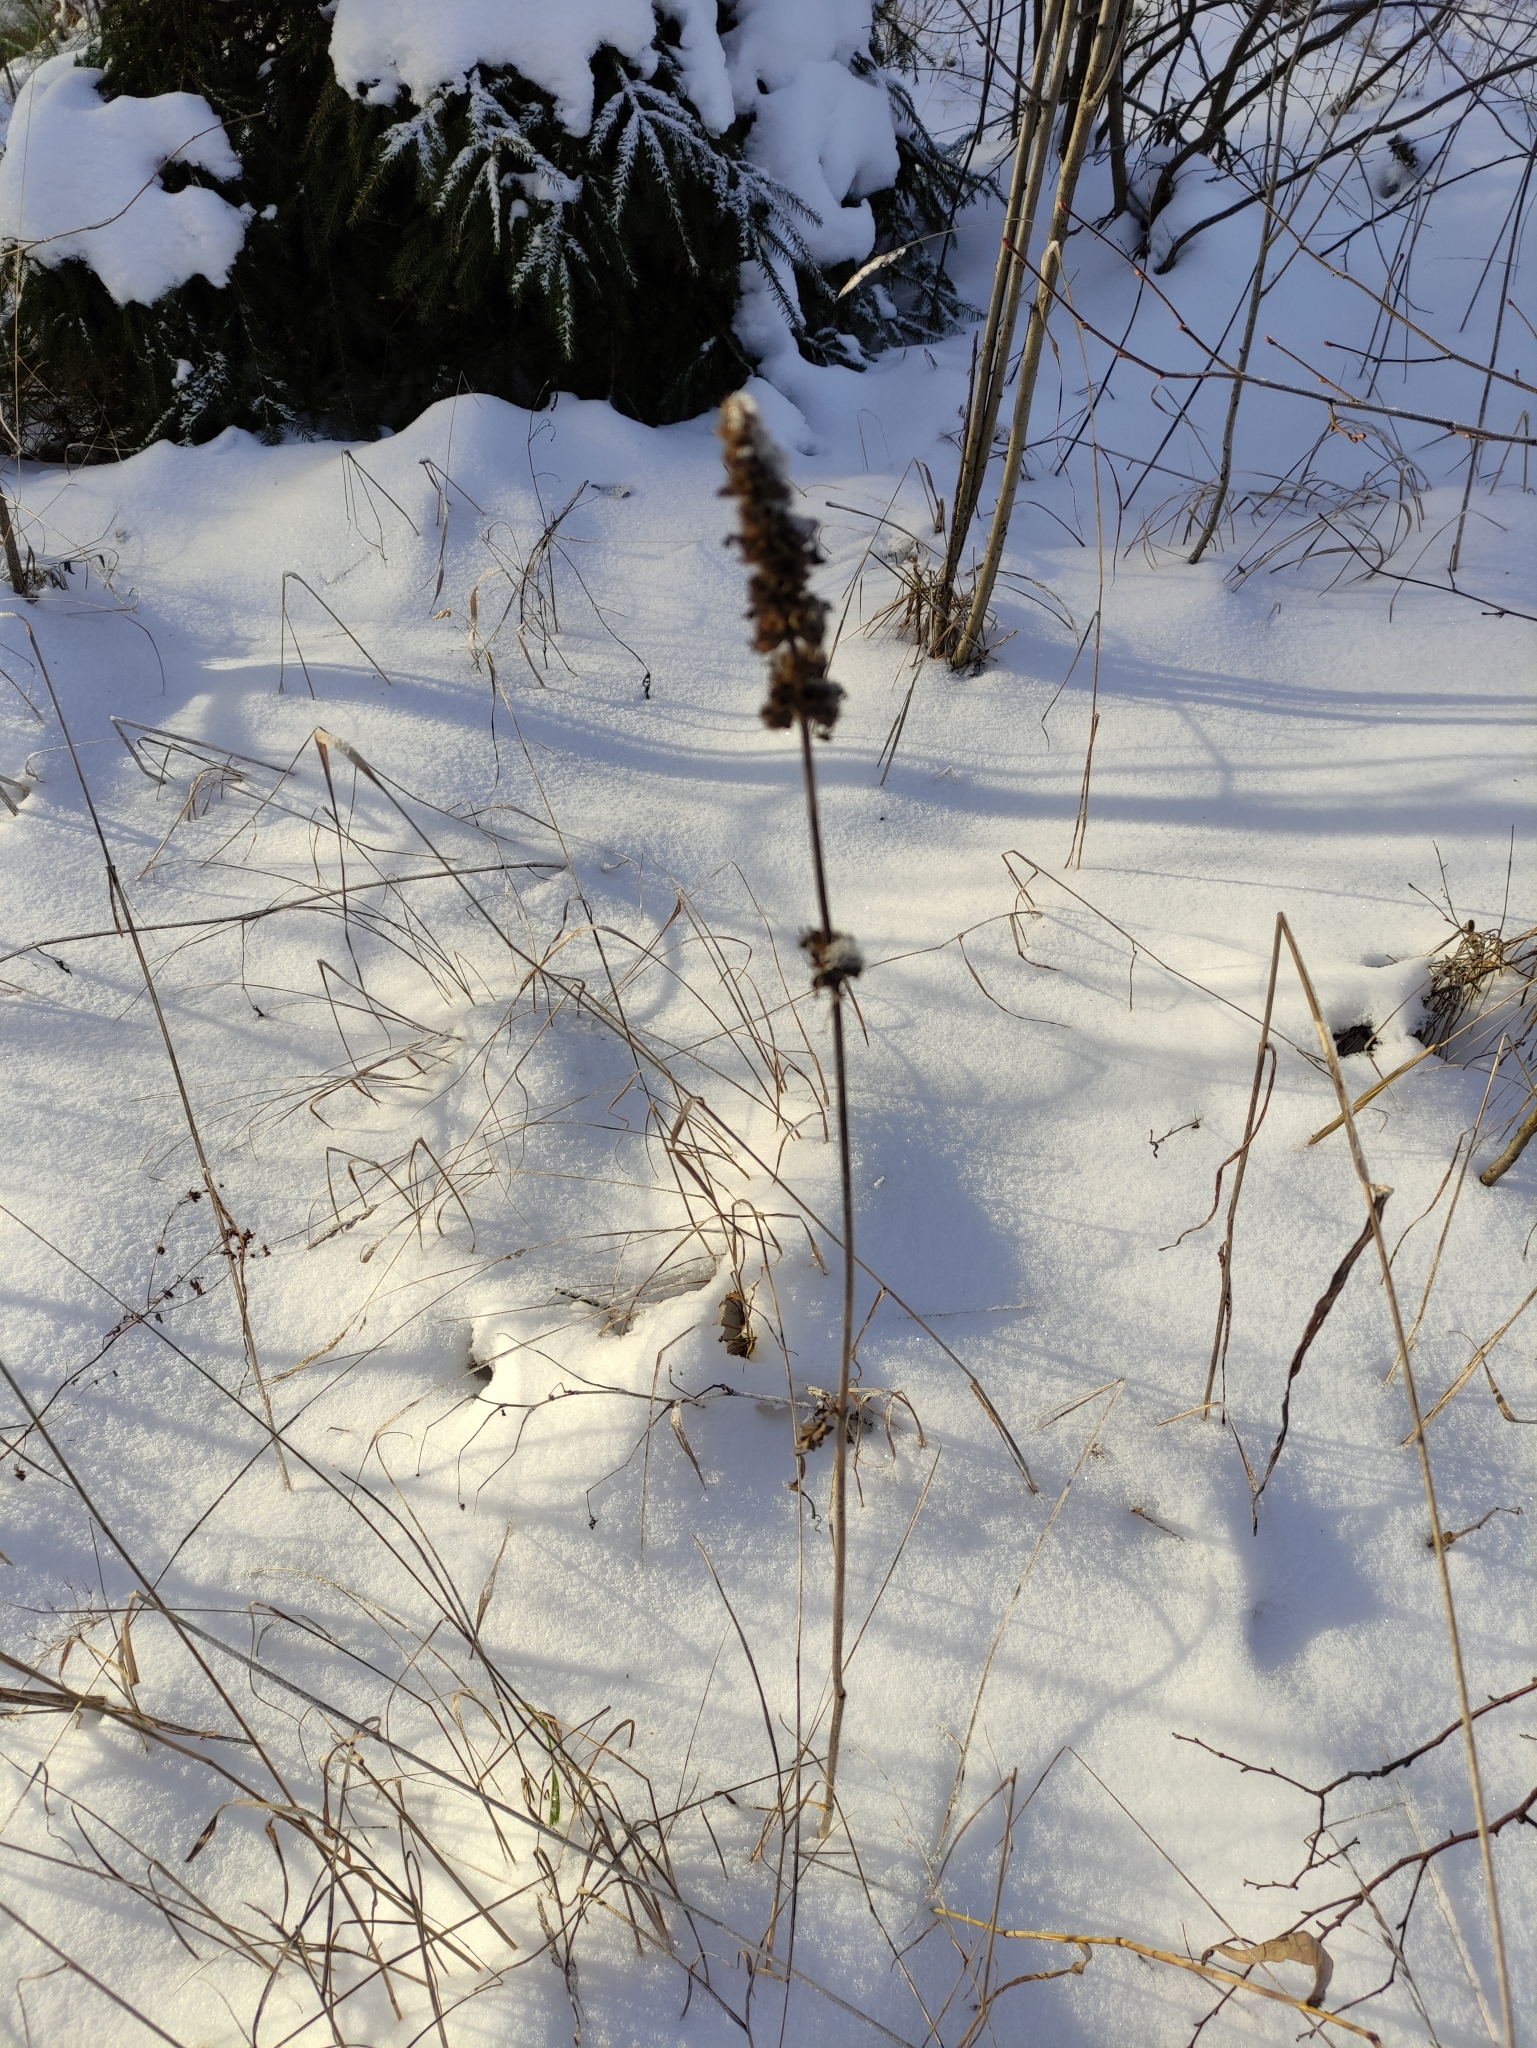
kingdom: Plantae
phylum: Tracheophyta
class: Magnoliopsida
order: Lamiales
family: Lamiaceae
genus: Betonica
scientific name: Betonica officinalis
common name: Bishop's-wort
